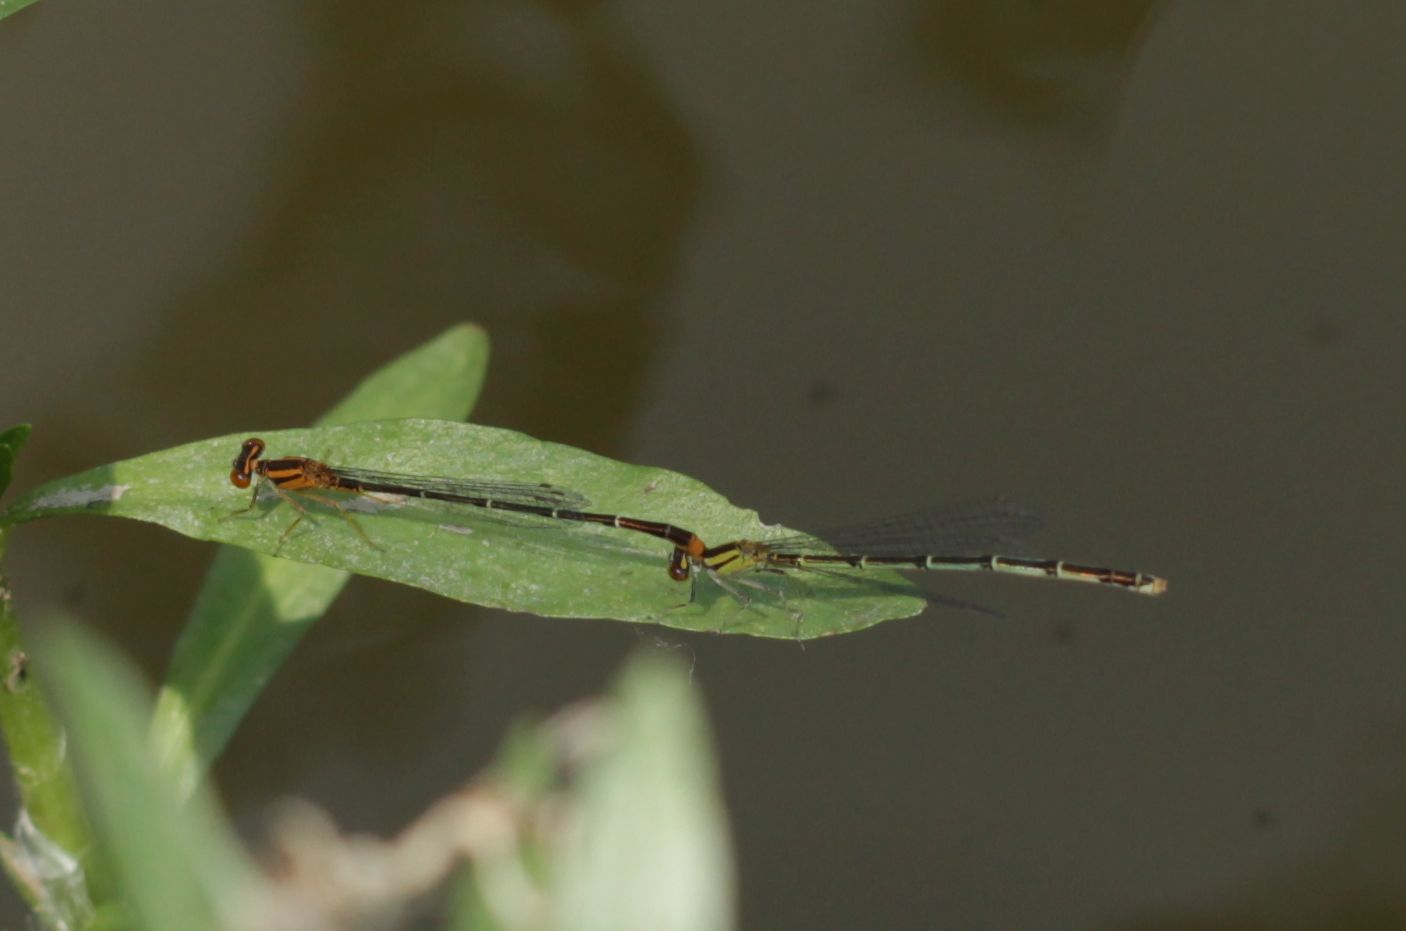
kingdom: Animalia
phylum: Arthropoda
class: Insecta
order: Odonata
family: Coenagrionidae
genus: Enallagma
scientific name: Enallagma signatum
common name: Orange bluet
